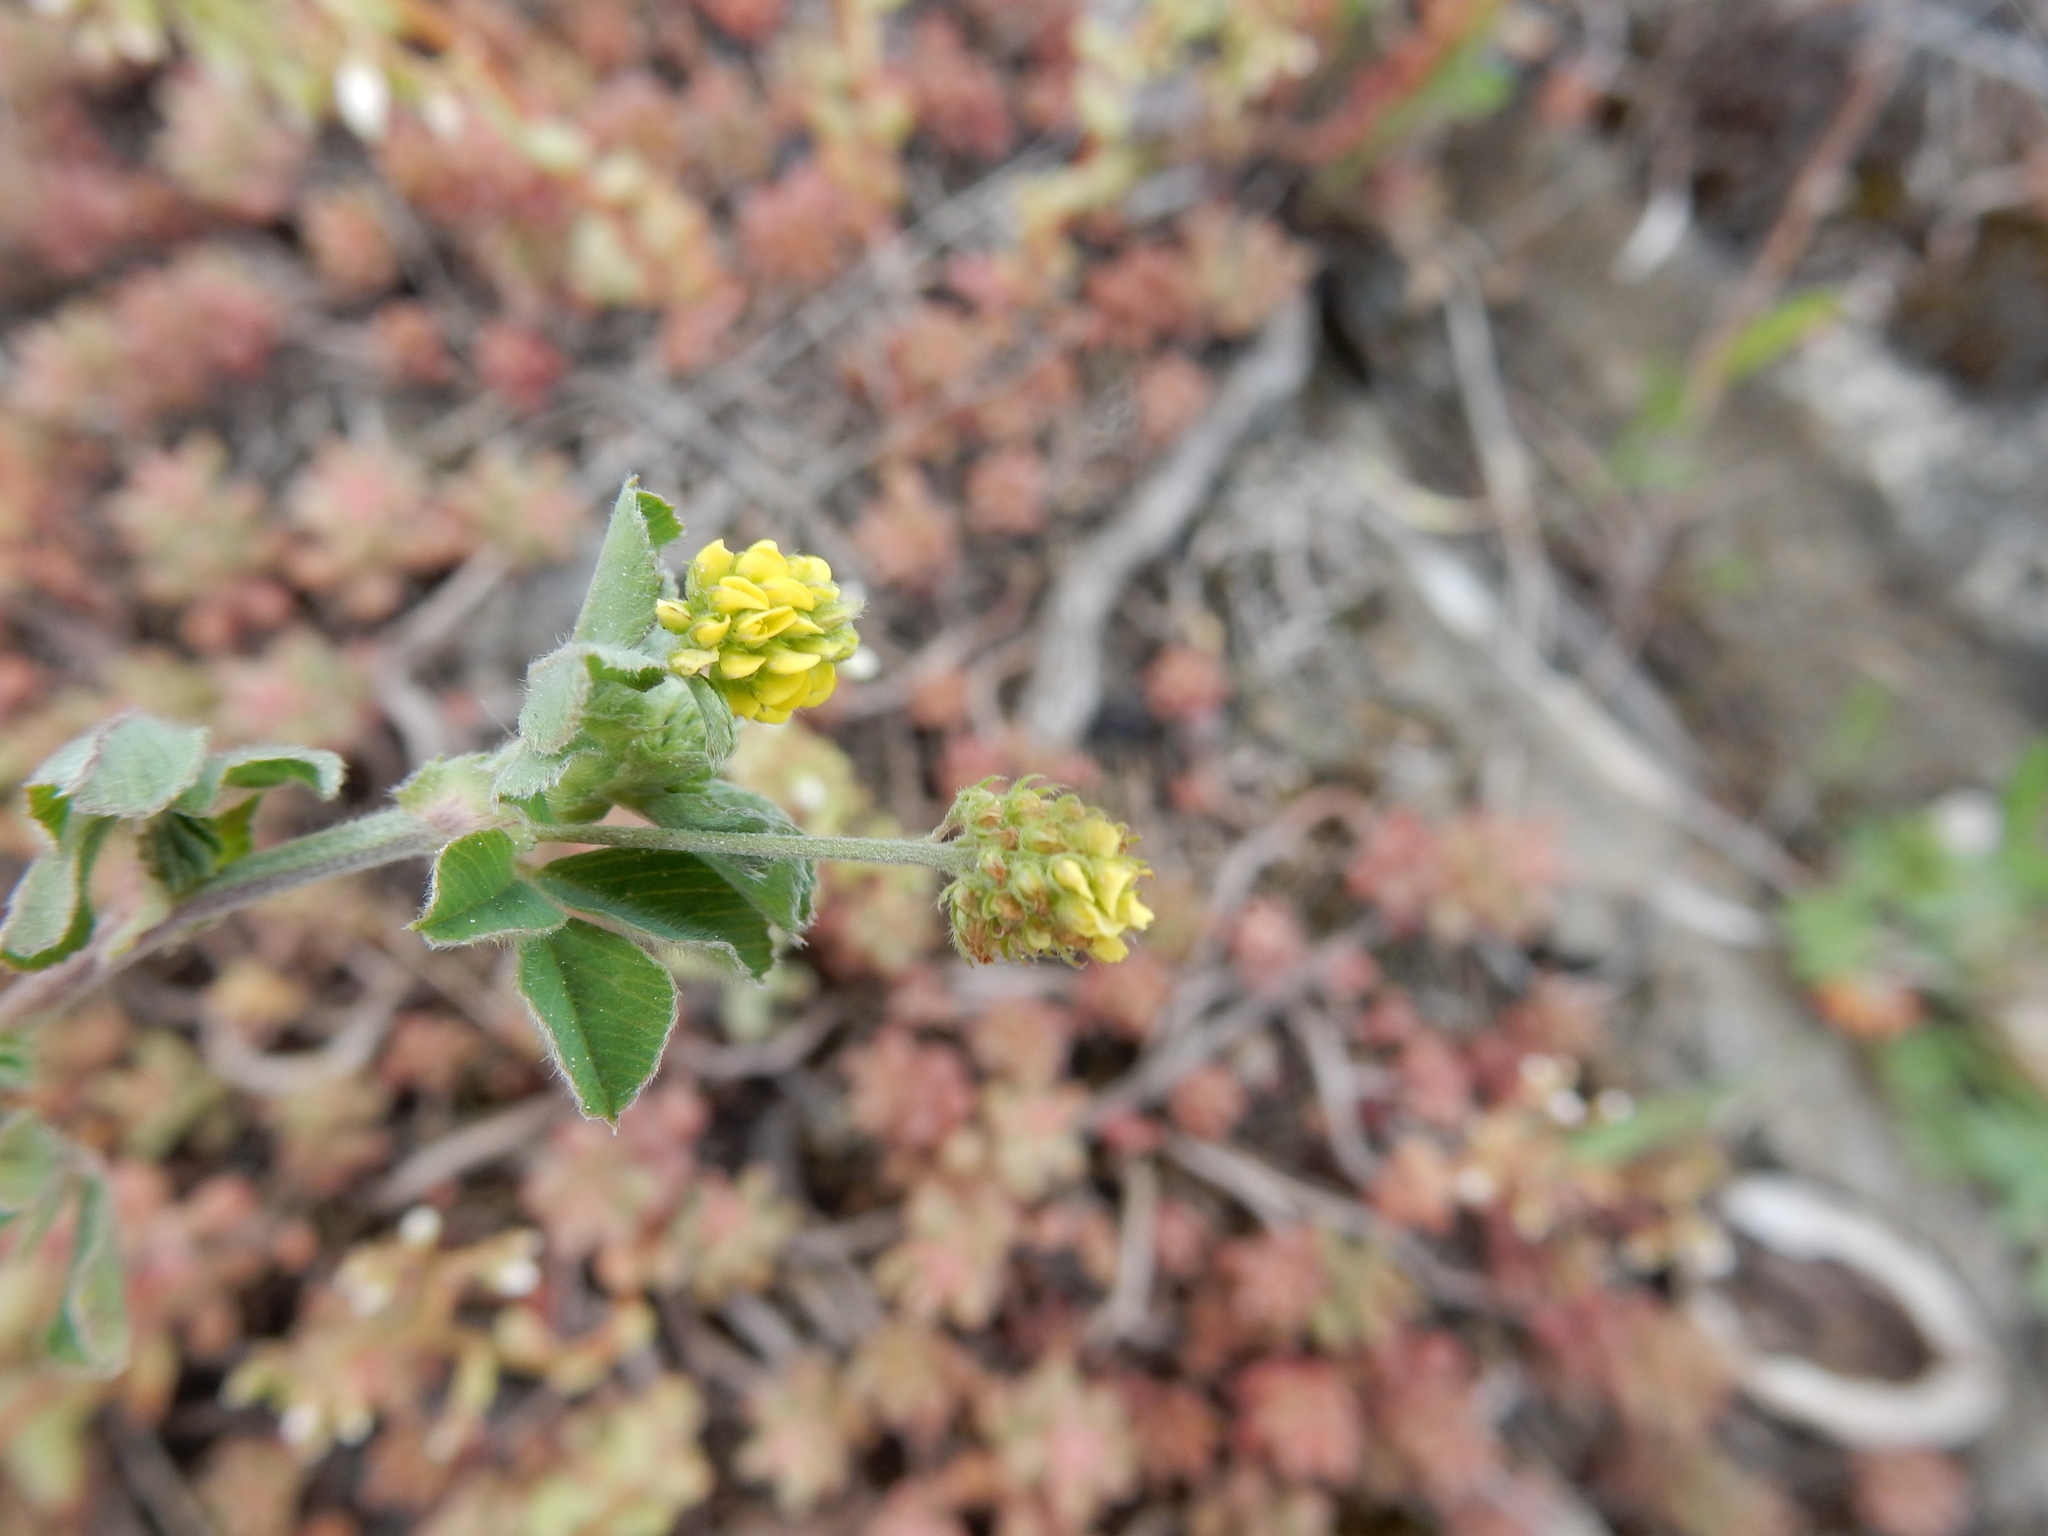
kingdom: Plantae
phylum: Tracheophyta
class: Magnoliopsida
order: Fabales
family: Fabaceae
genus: Medicago
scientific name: Medicago lupulina
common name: Black medick
